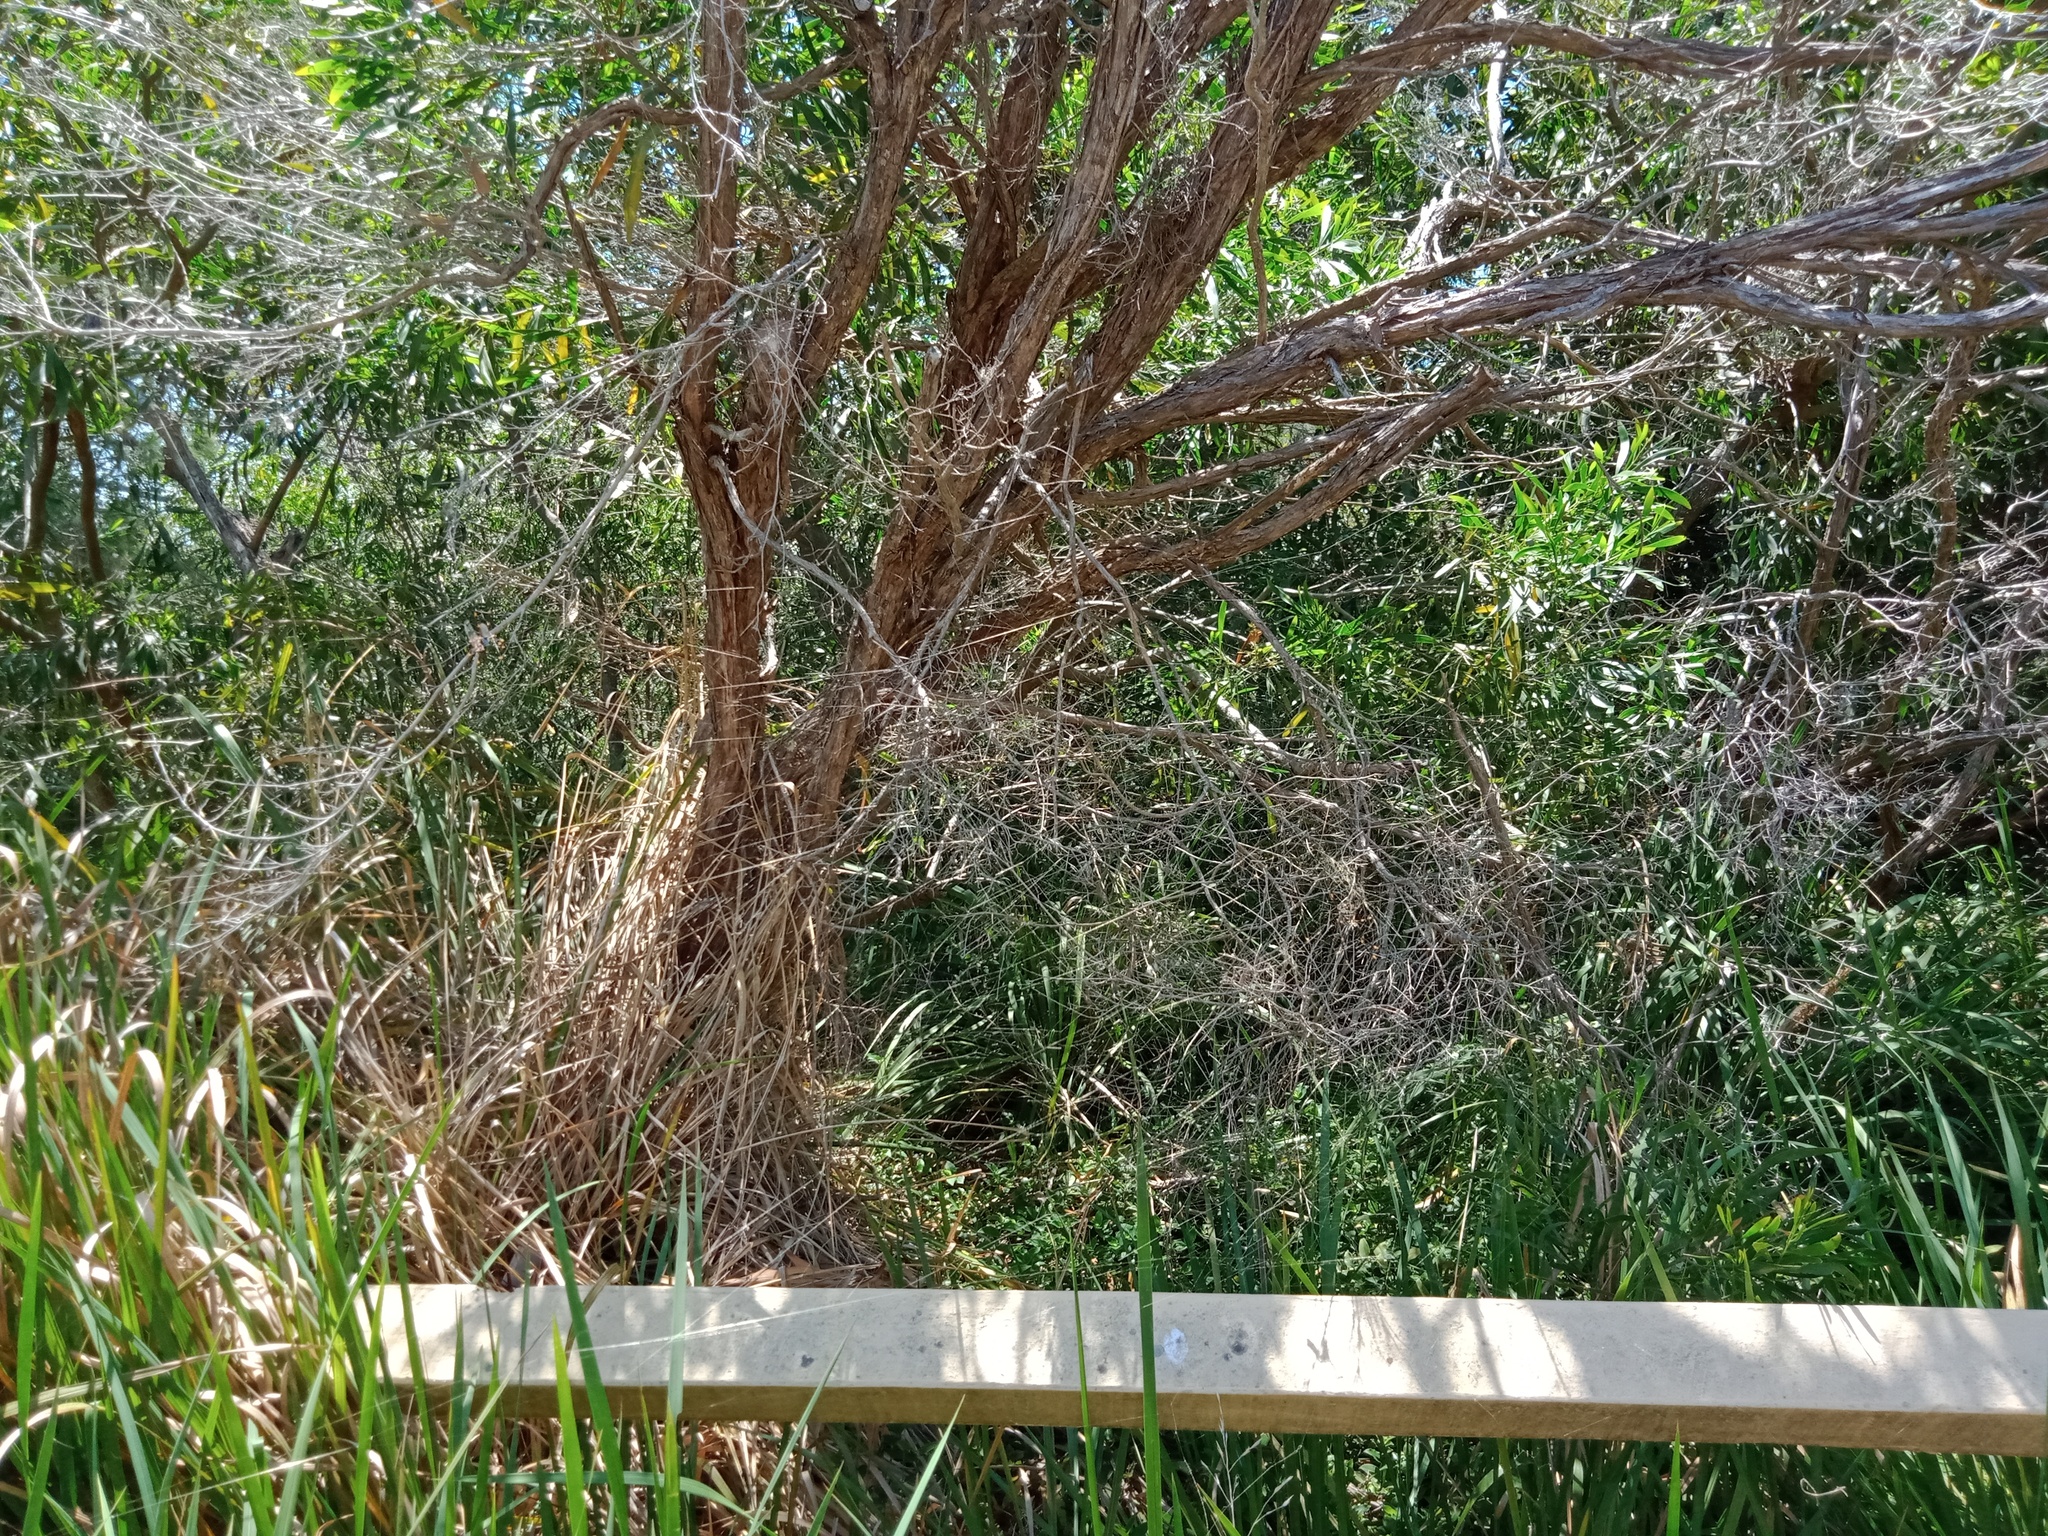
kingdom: Animalia
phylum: Arthropoda
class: Arachnida
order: Araneae
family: Araneidae
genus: Trichonephila
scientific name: Trichonephila edulis
